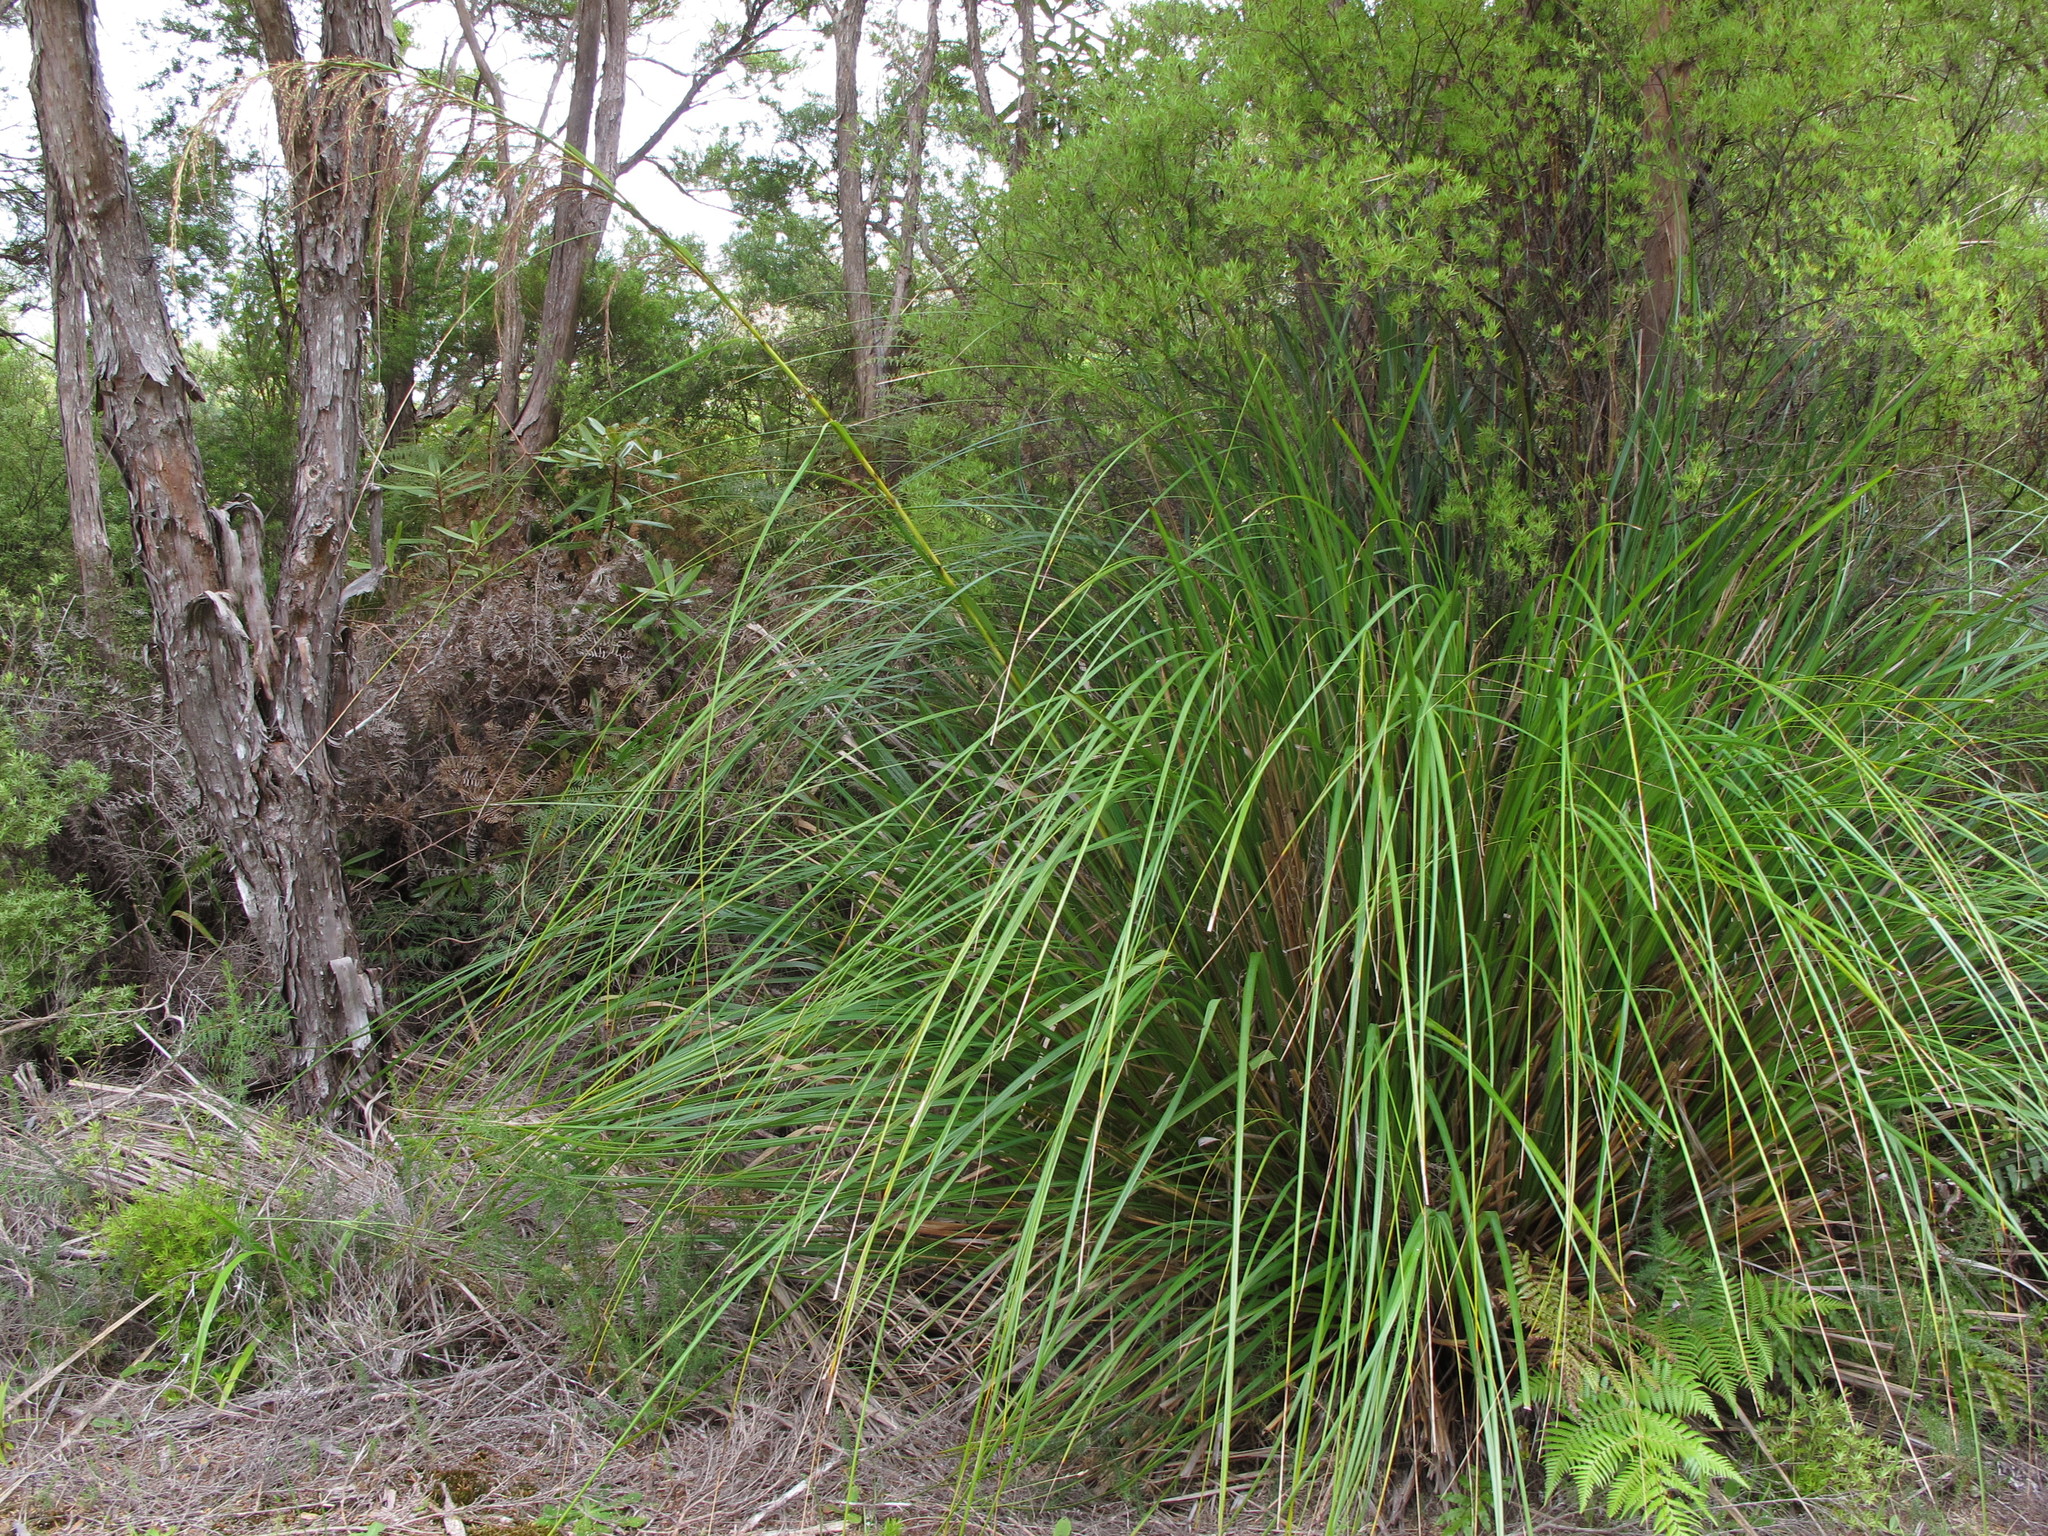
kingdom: Plantae
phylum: Tracheophyta
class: Liliopsida
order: Poales
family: Cyperaceae
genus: Gahnia
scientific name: Gahnia setifolia
